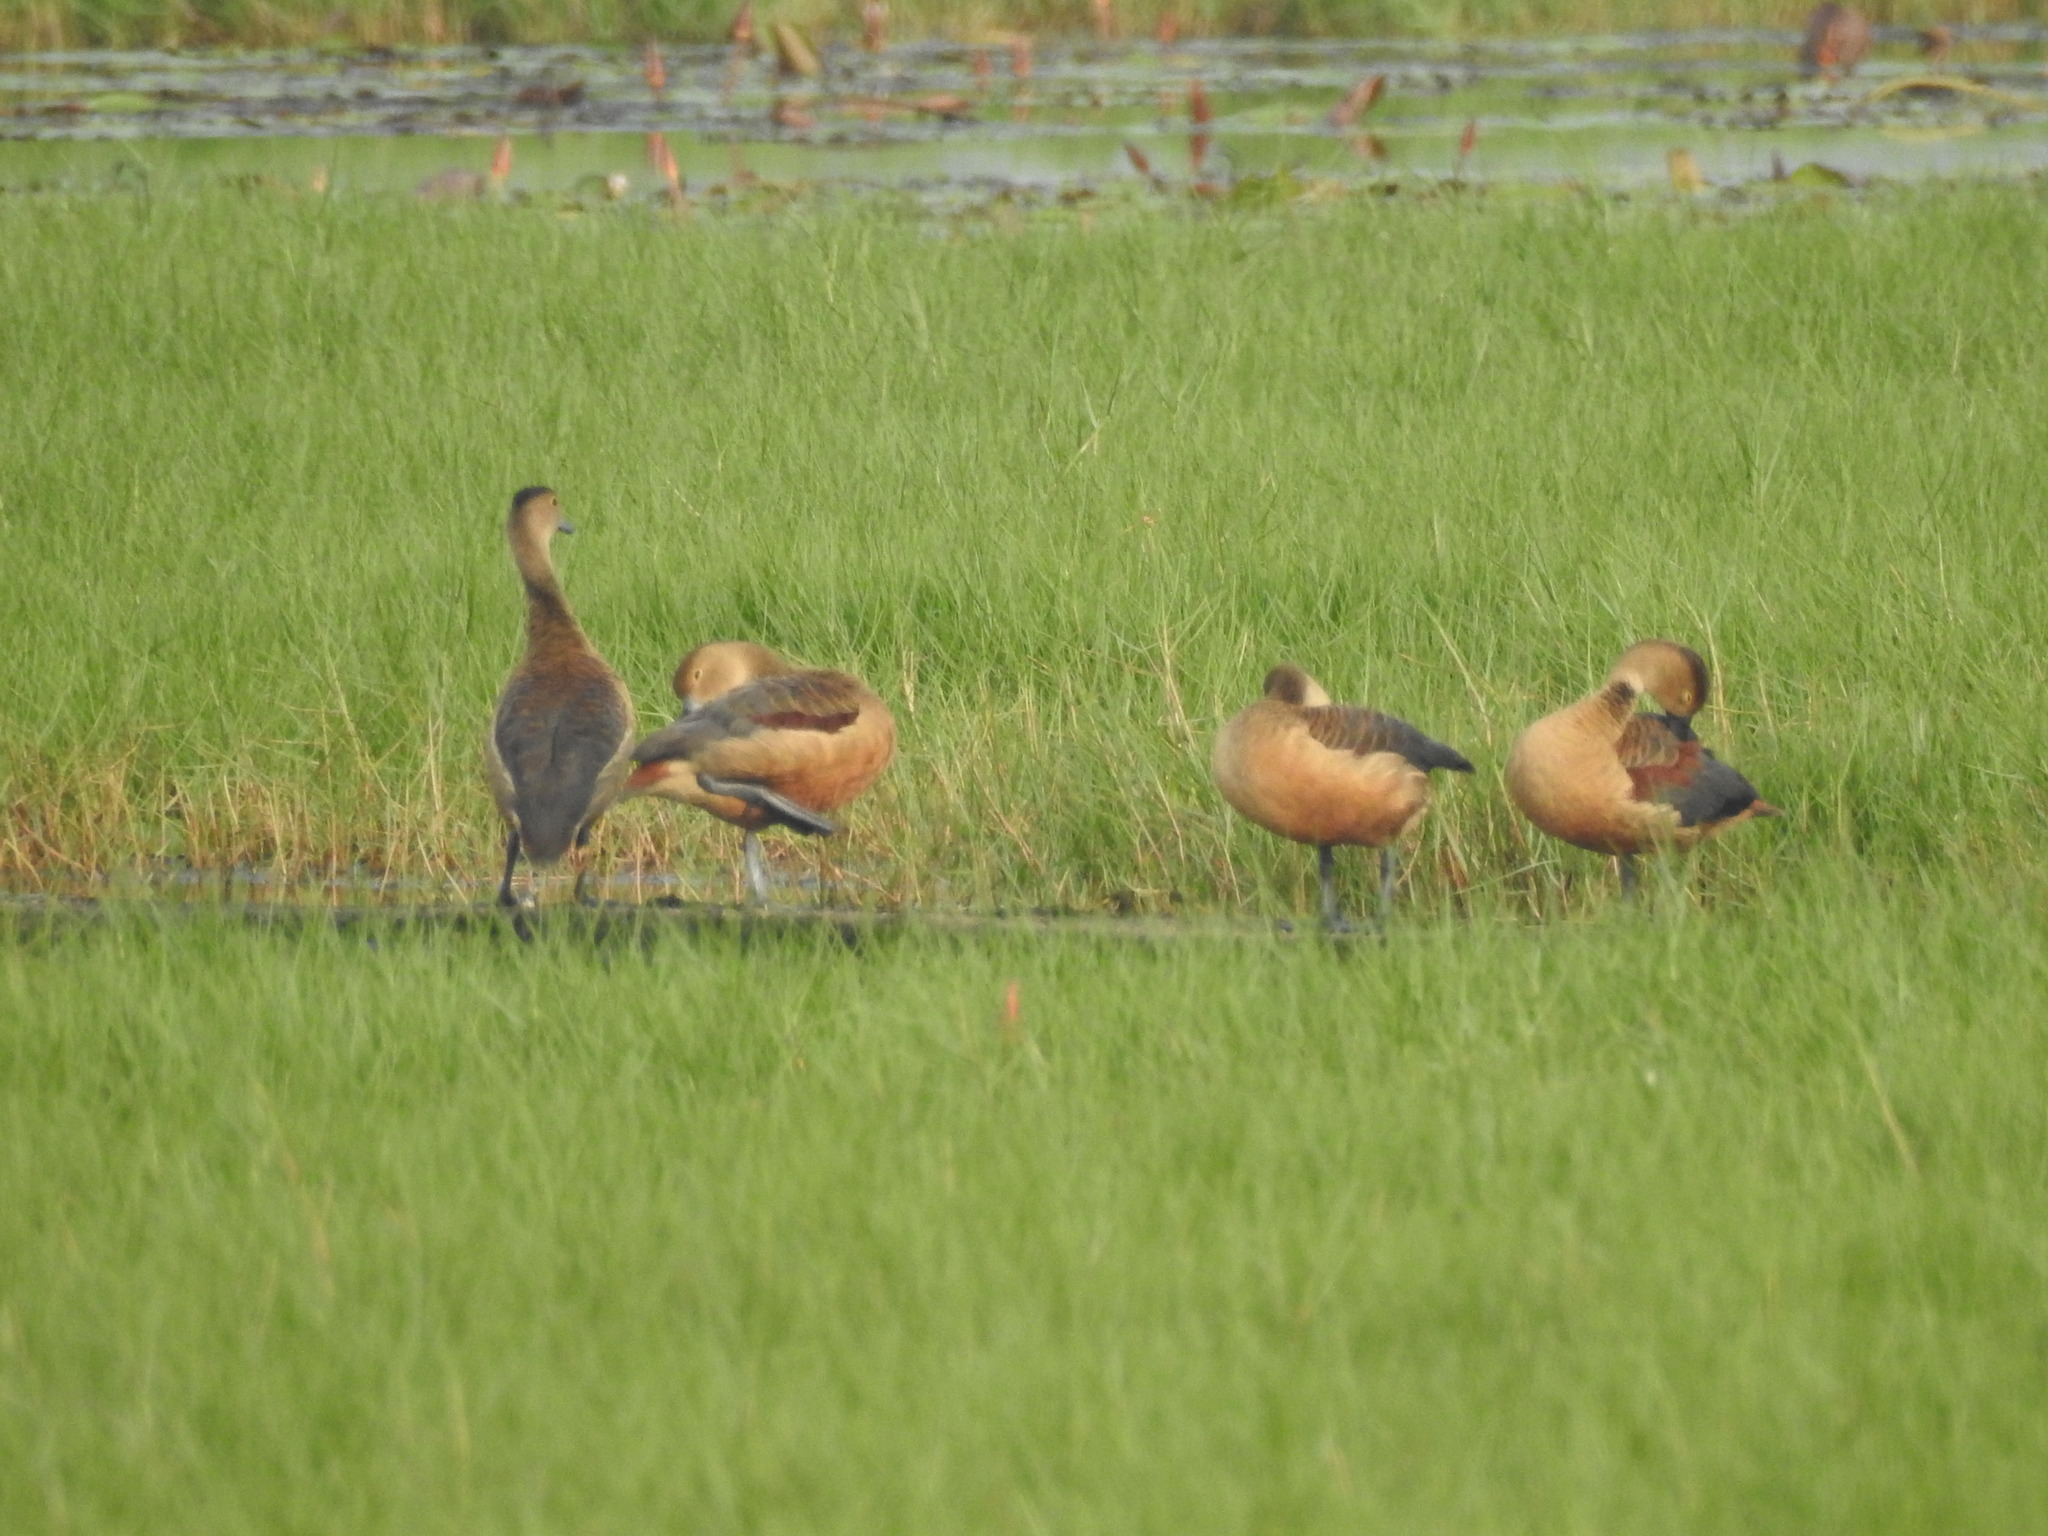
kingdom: Animalia
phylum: Chordata
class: Aves
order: Anseriformes
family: Anatidae
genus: Dendrocygna
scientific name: Dendrocygna javanica
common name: Lesser whistling-duck
